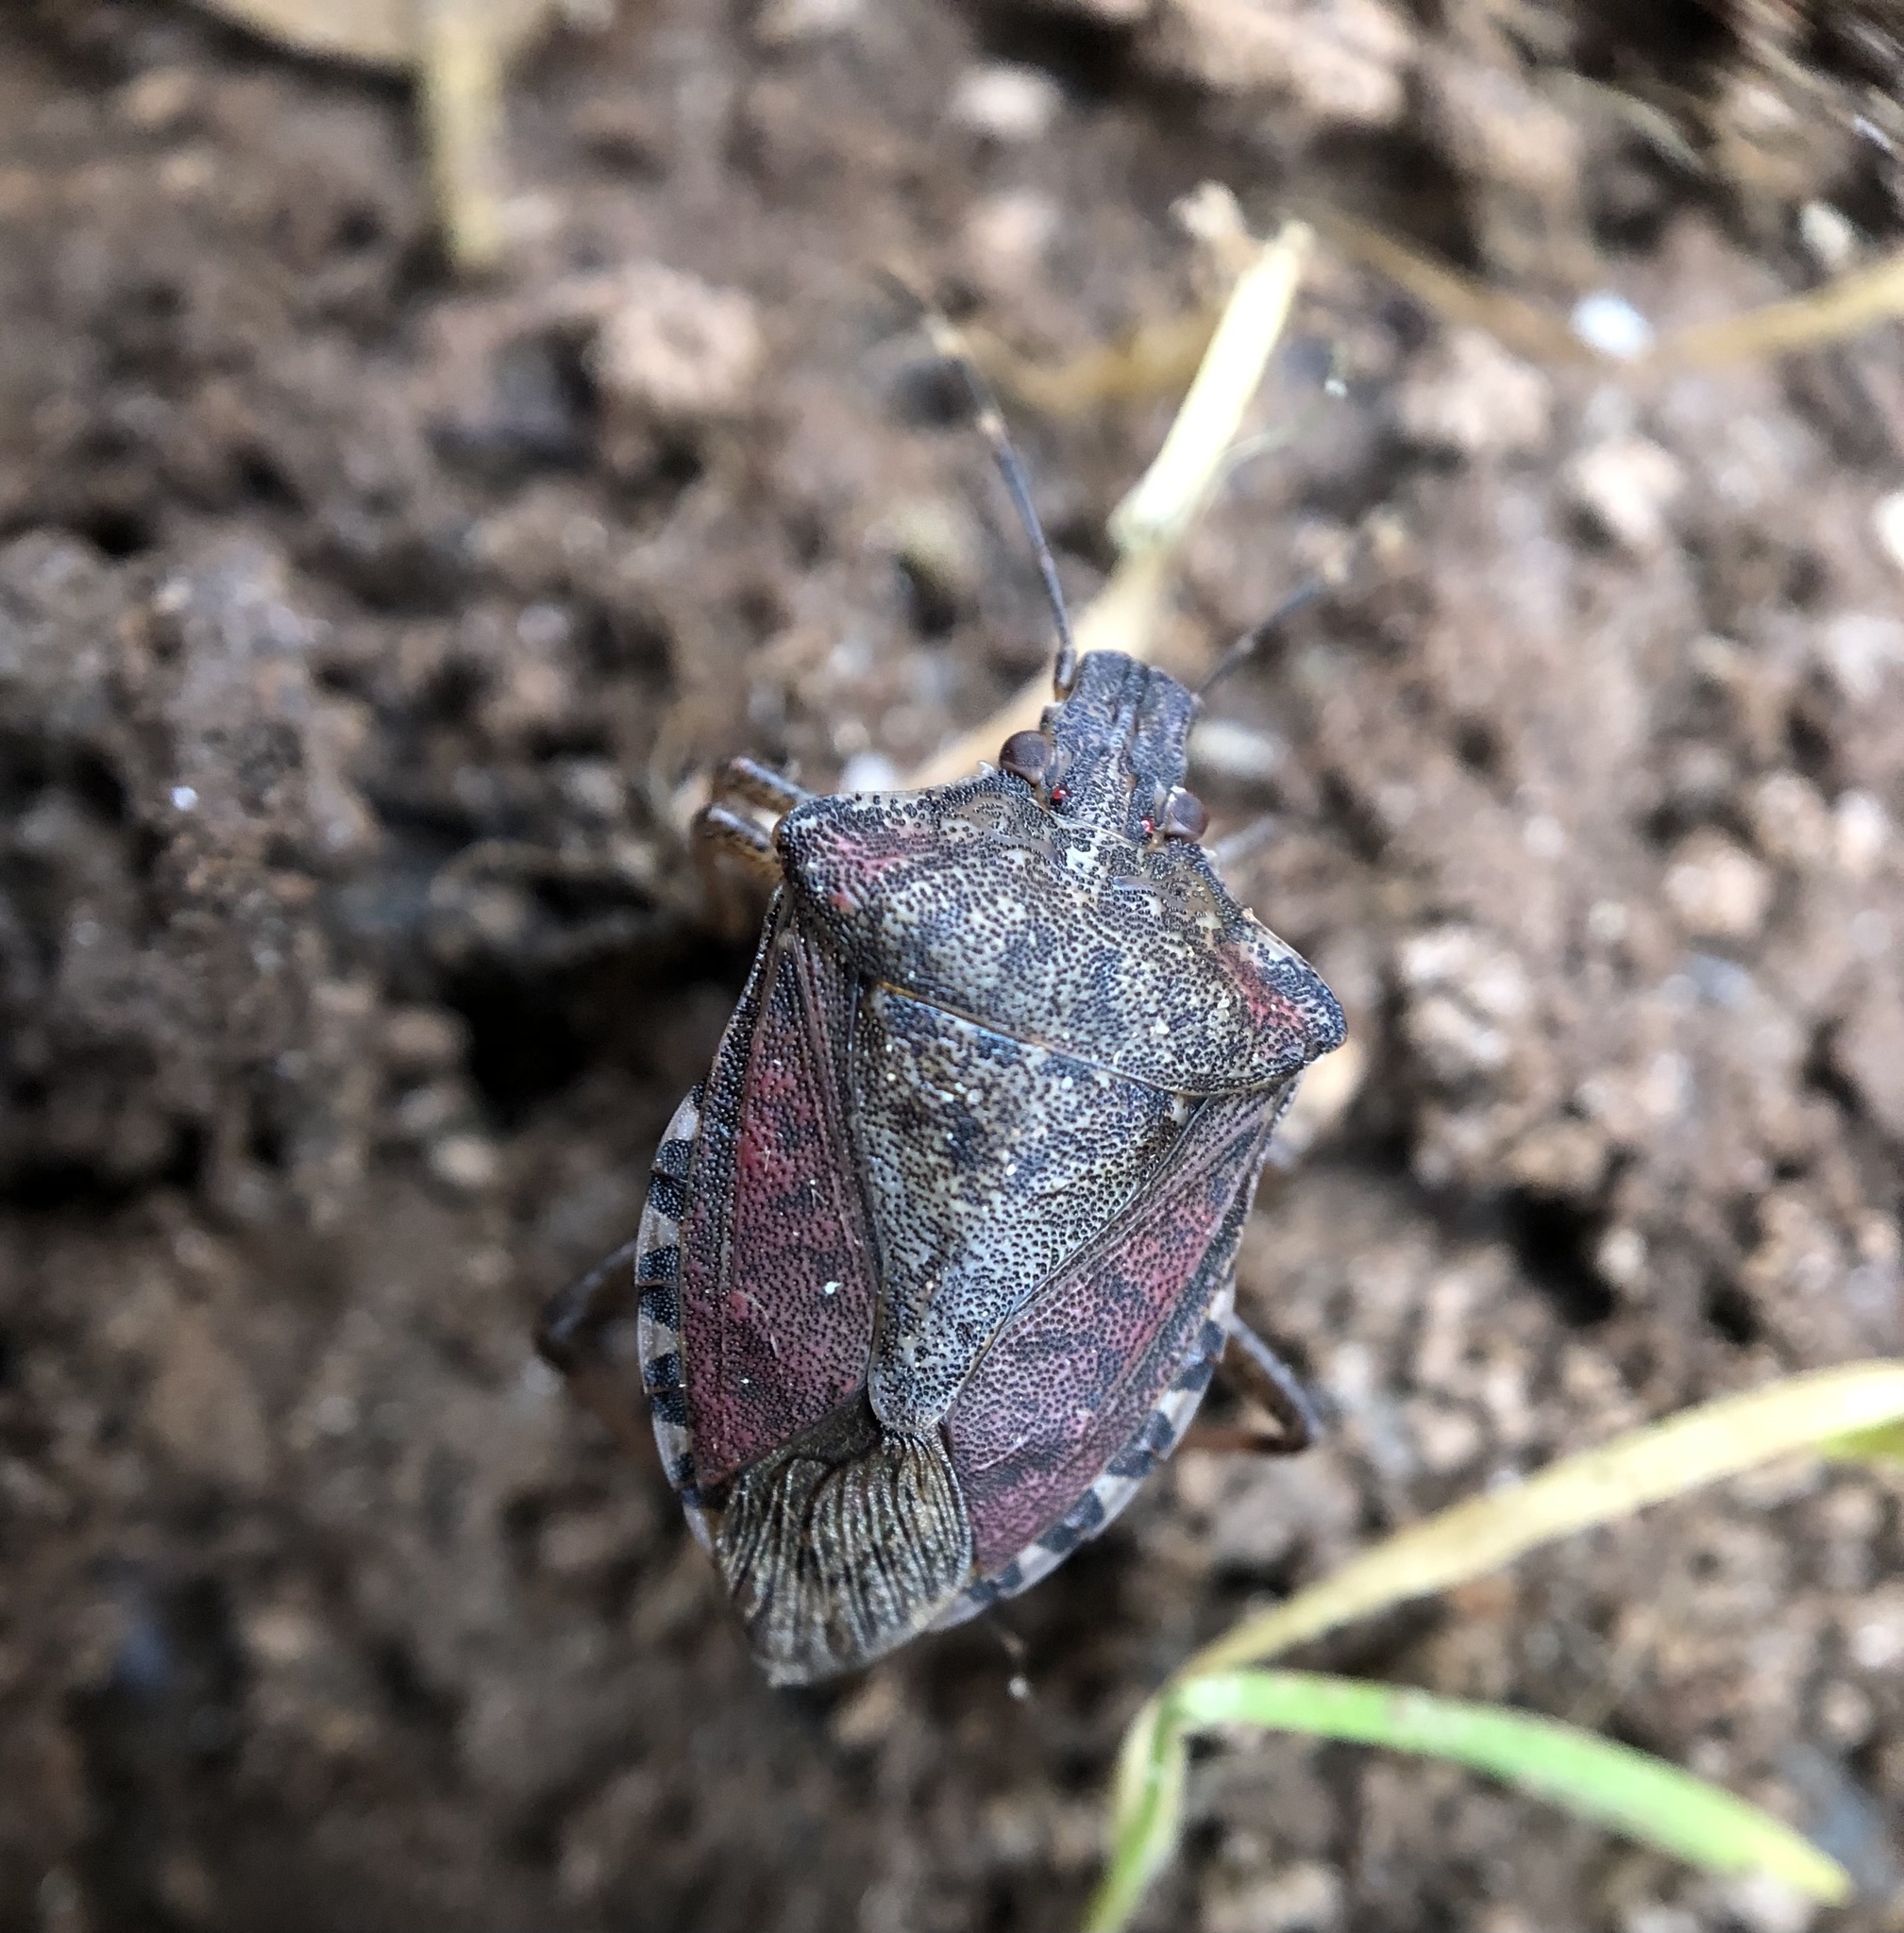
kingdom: Animalia
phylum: Arthropoda
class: Insecta
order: Hemiptera
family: Pentatomidae
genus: Halyomorpha
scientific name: Halyomorpha halys
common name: Brown marmorated stink bug
